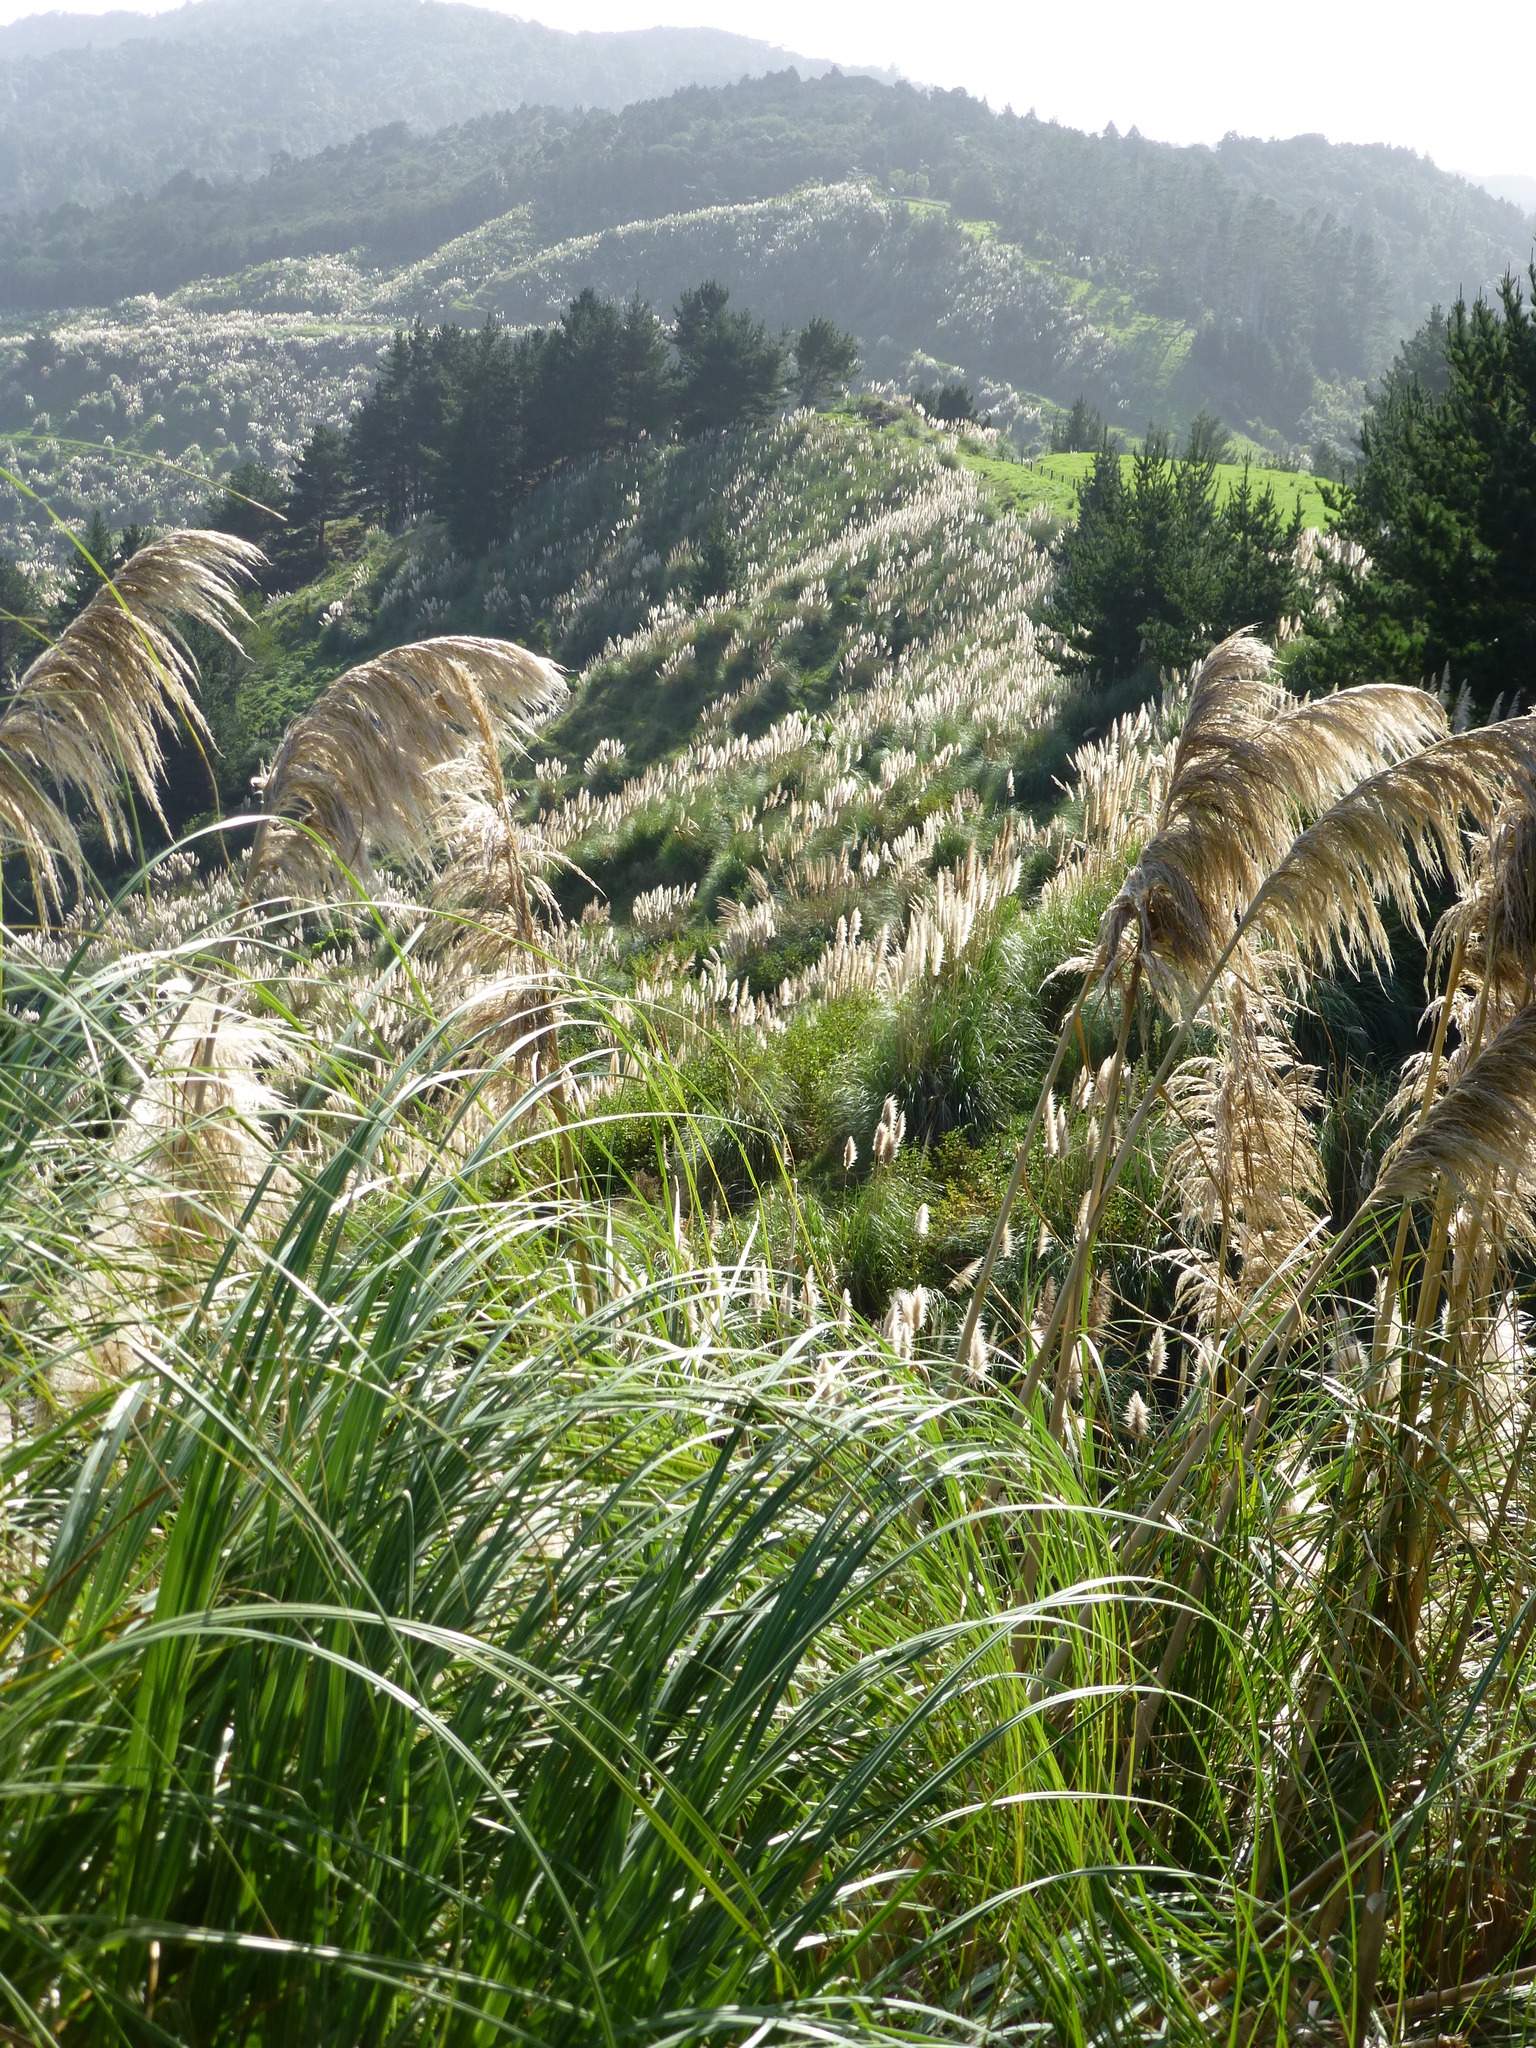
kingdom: Plantae
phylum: Tracheophyta
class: Liliopsida
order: Poales
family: Poaceae
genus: Cortaderia
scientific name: Cortaderia selloana
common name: Uruguayan pampas grass
